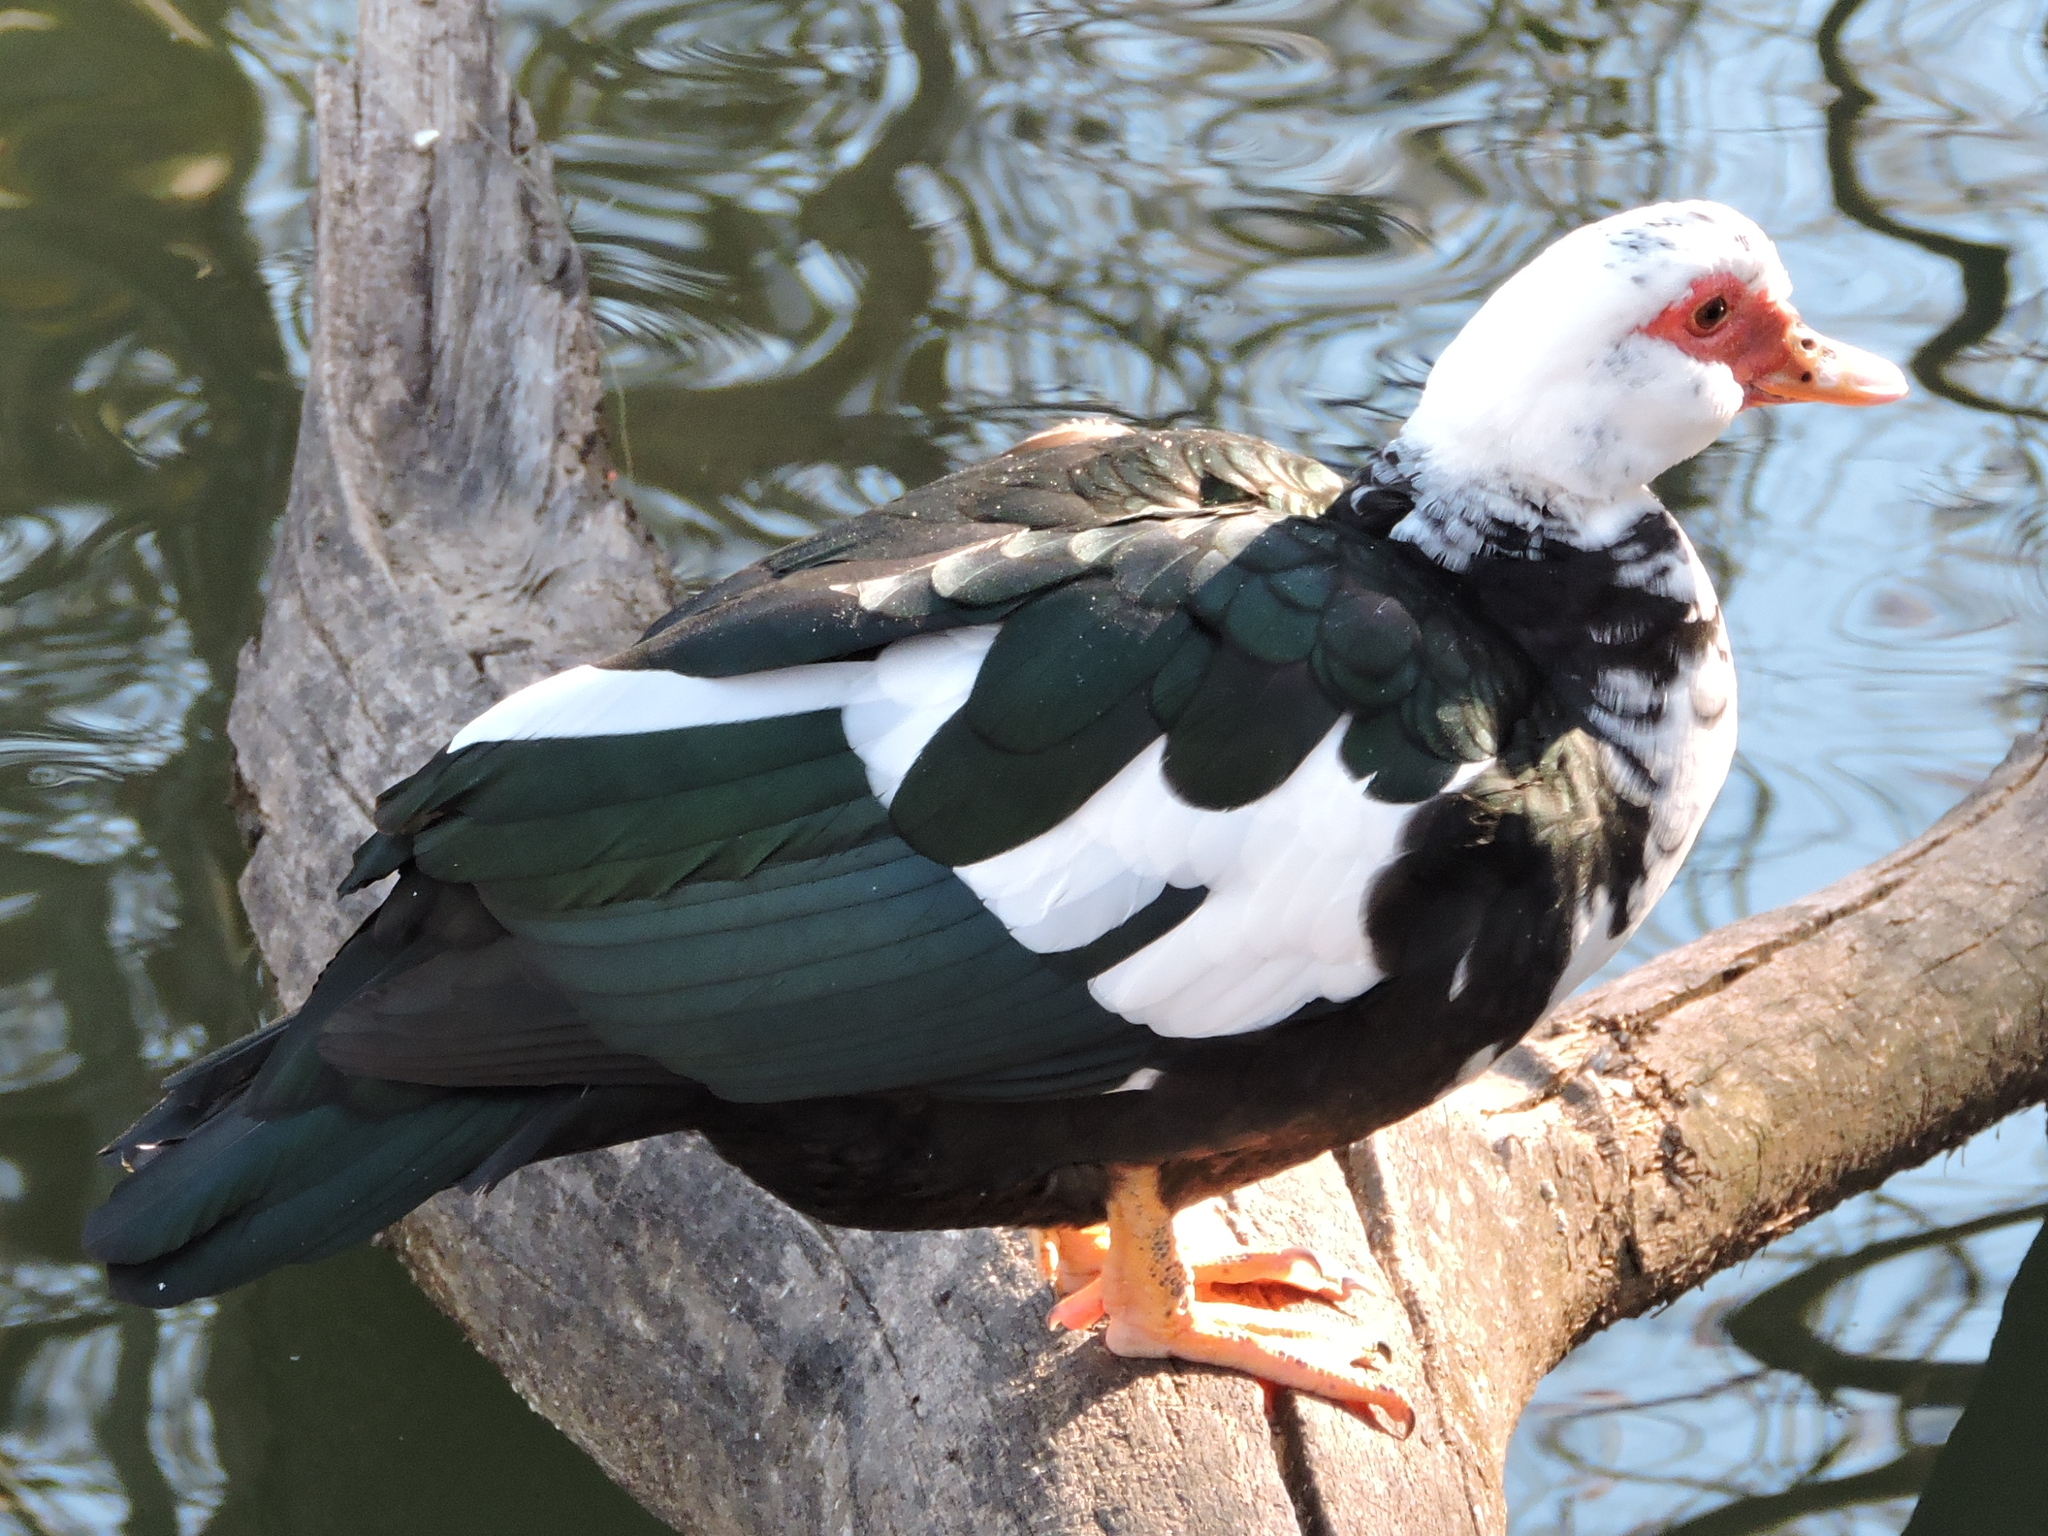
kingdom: Animalia
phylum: Chordata
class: Aves
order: Anseriformes
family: Anatidae
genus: Cairina
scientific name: Cairina moschata
